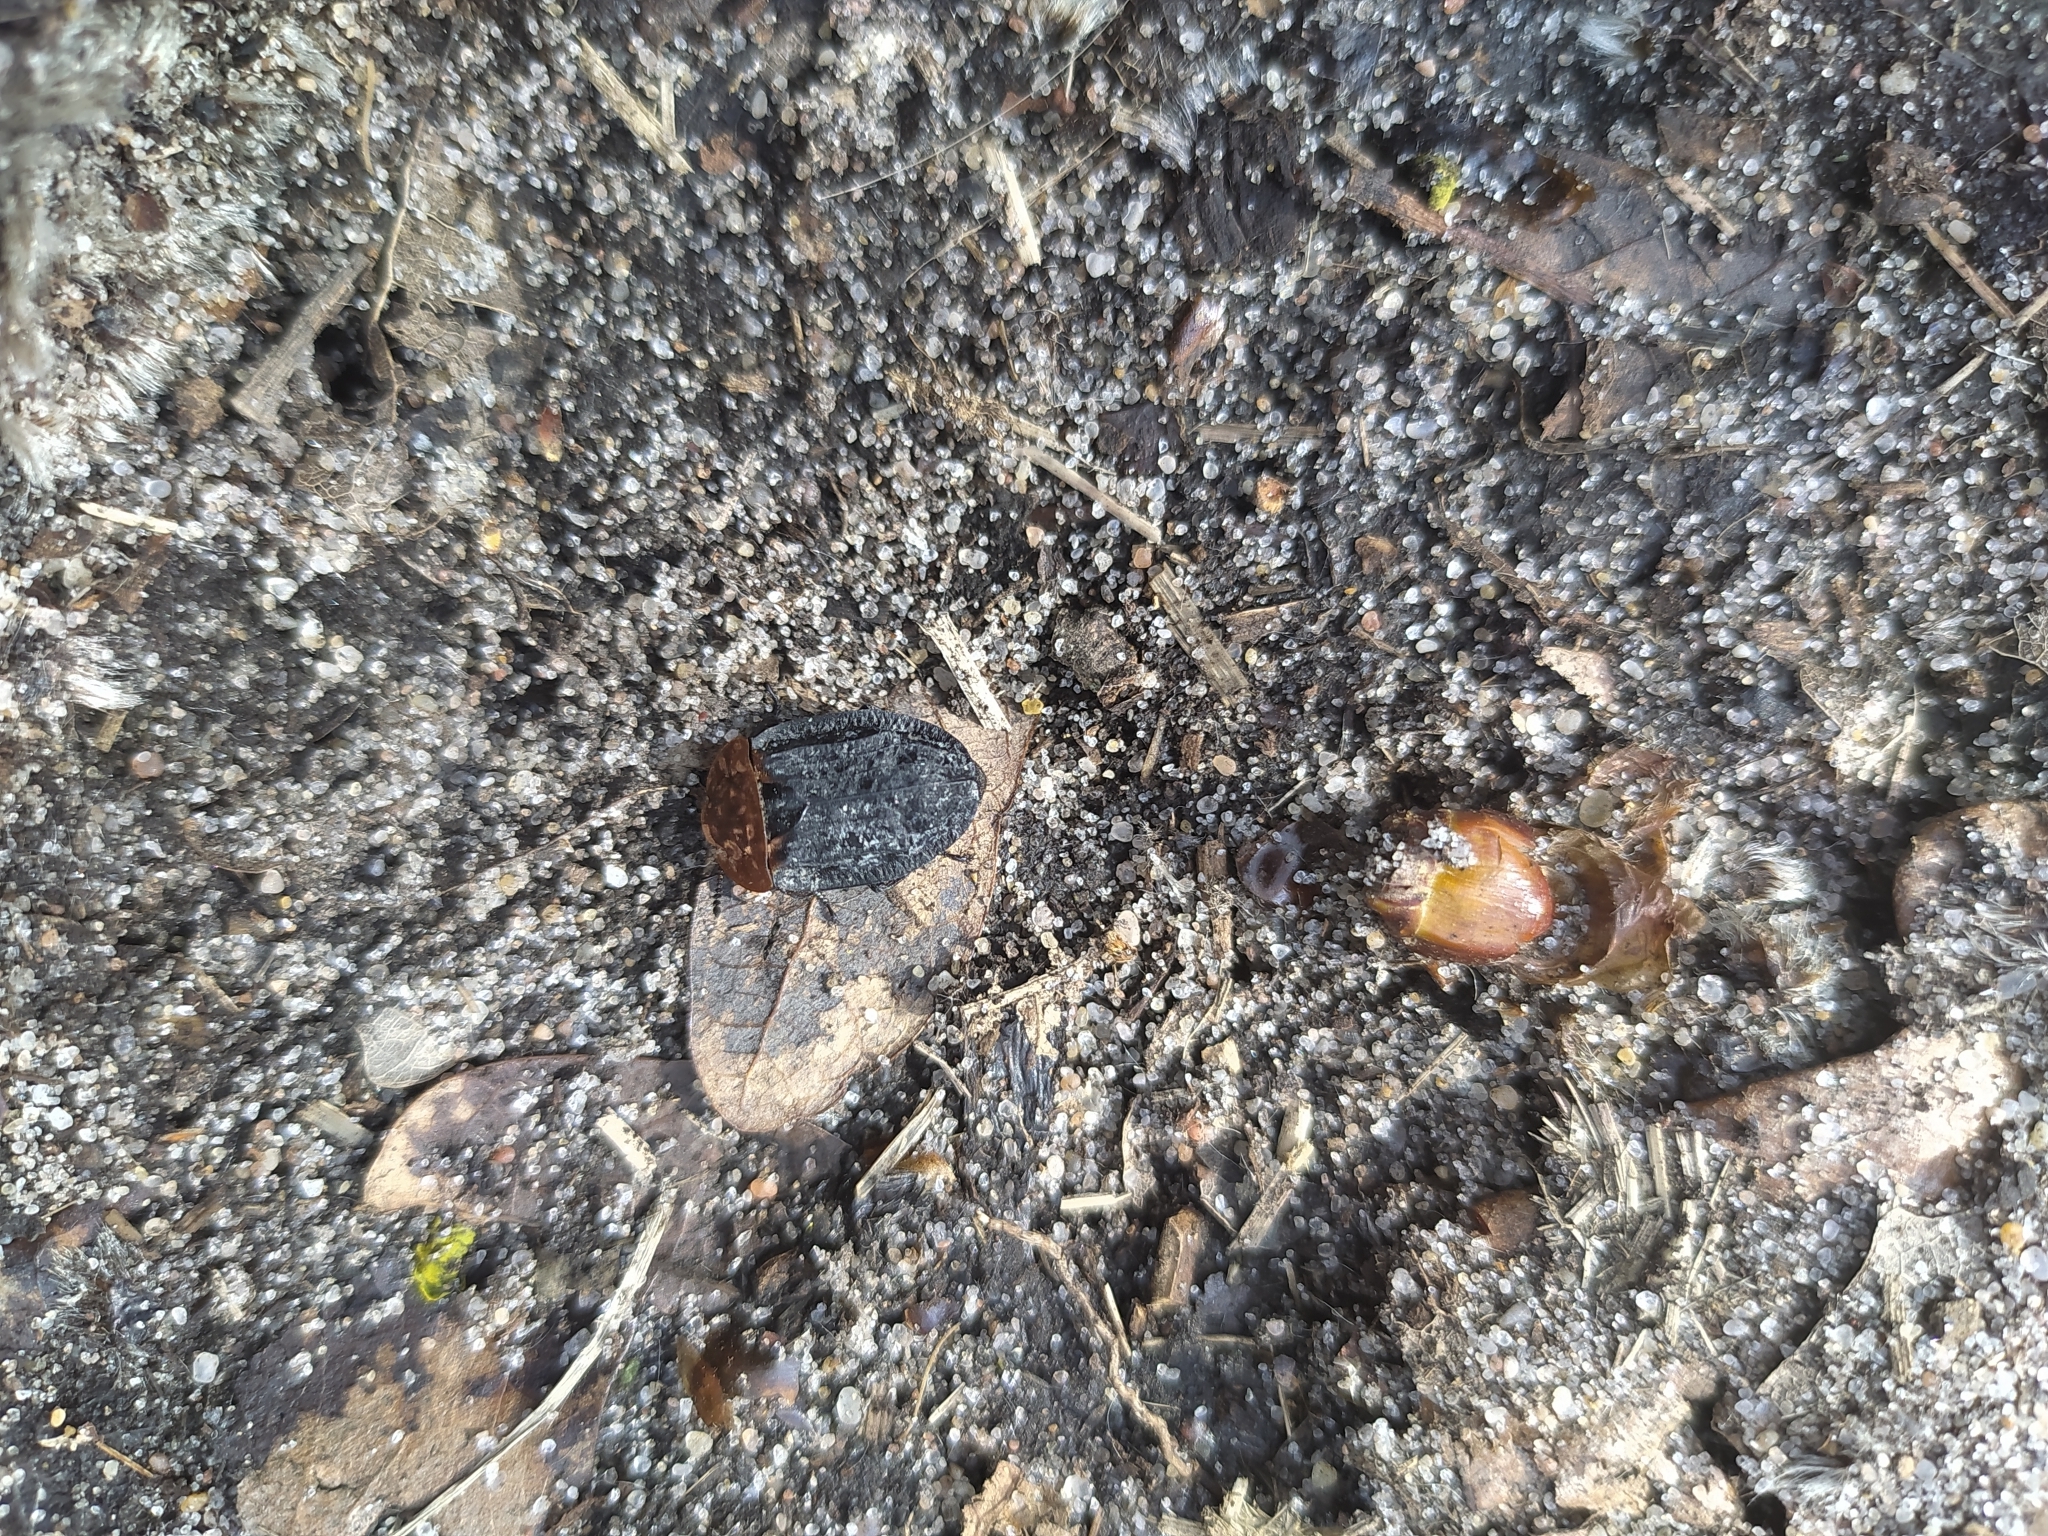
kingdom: Animalia
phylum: Arthropoda
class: Insecta
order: Coleoptera
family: Staphylinidae
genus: Oiceoptoma
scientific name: Oiceoptoma thoracicum
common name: Red-breasted carrion beetle
